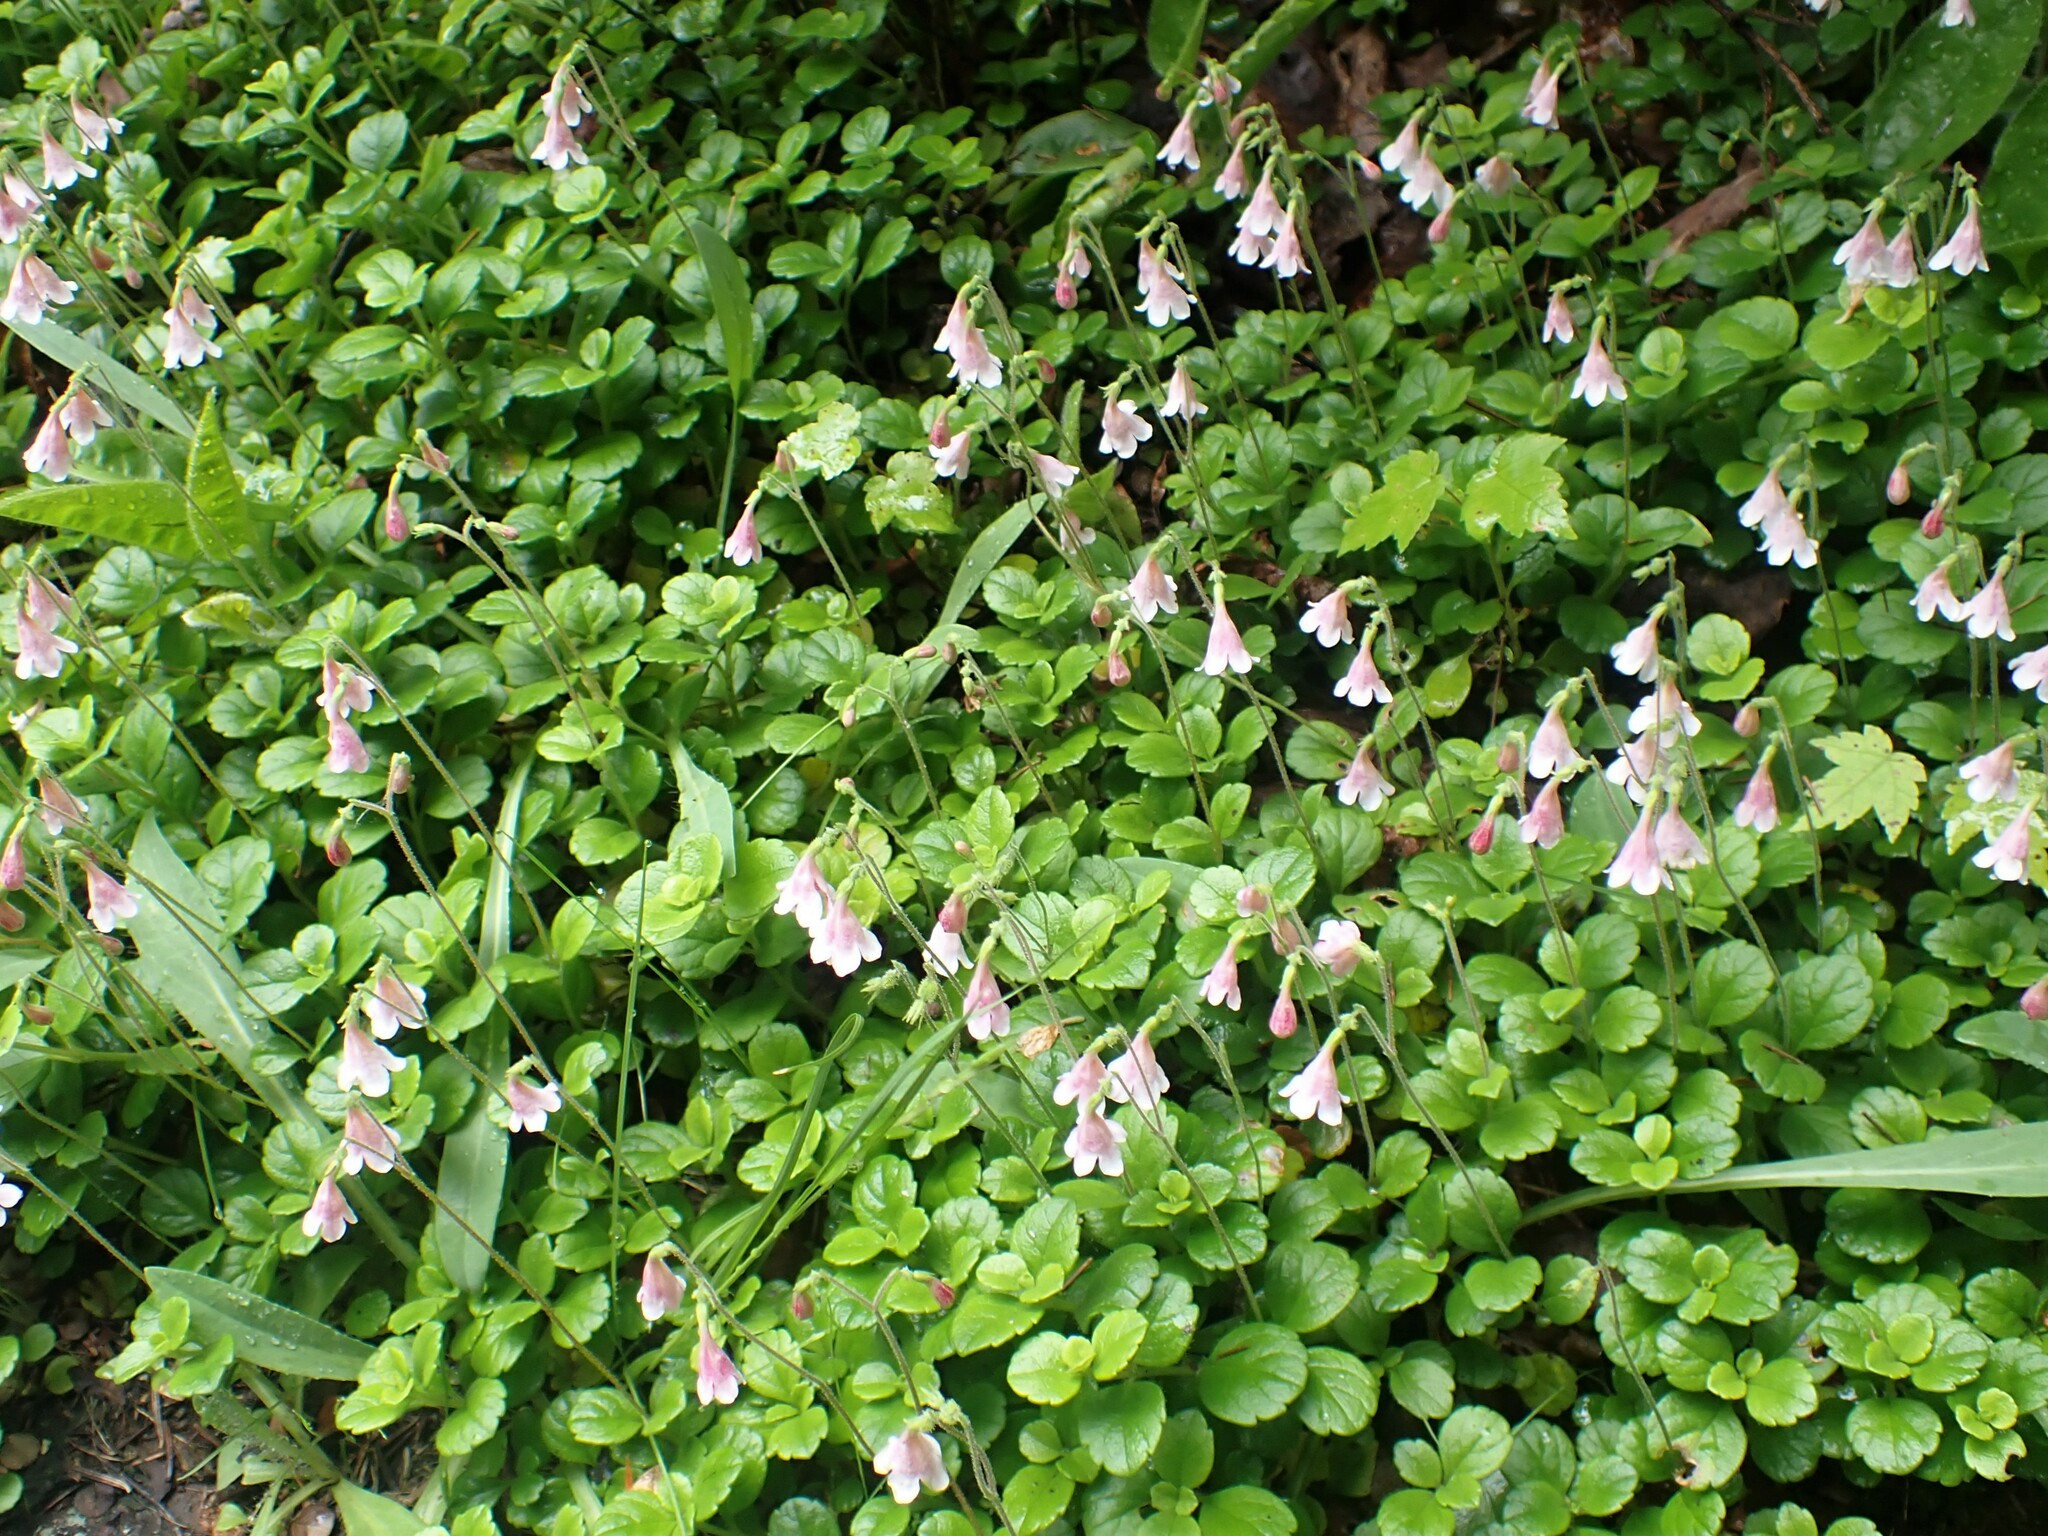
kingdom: Plantae
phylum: Tracheophyta
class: Magnoliopsida
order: Dipsacales
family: Caprifoliaceae
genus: Linnaea
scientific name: Linnaea borealis
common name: Twinflower
